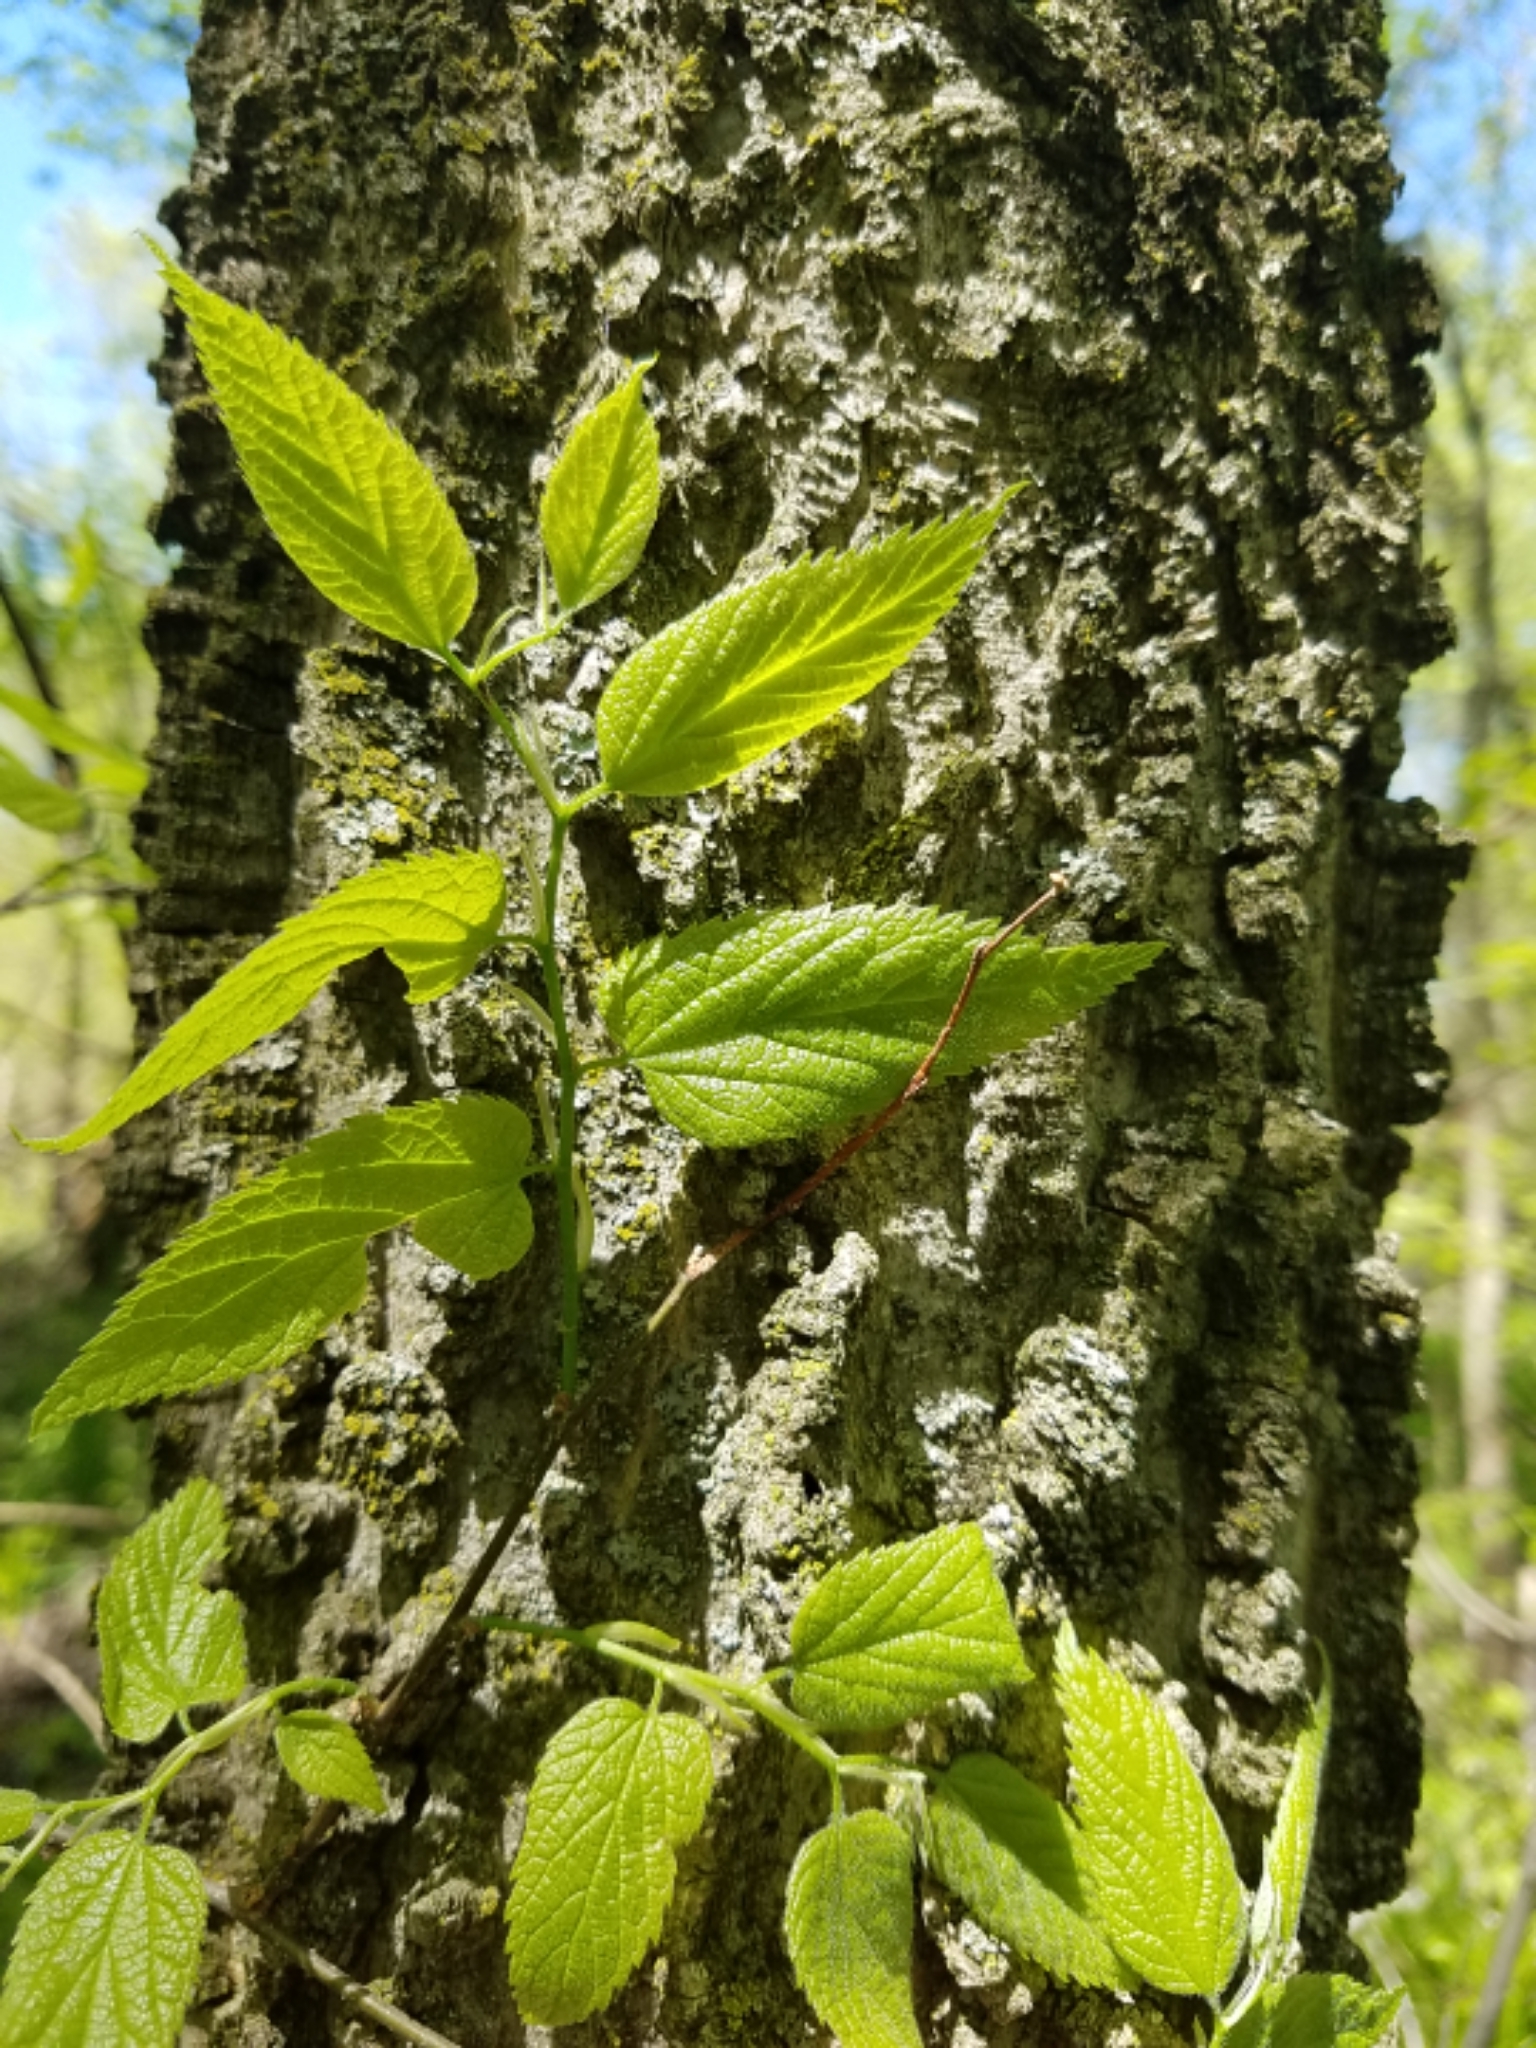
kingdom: Plantae
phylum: Tracheophyta
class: Magnoliopsida
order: Rosales
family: Cannabaceae
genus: Celtis
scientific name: Celtis occidentalis
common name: Common hackberry
